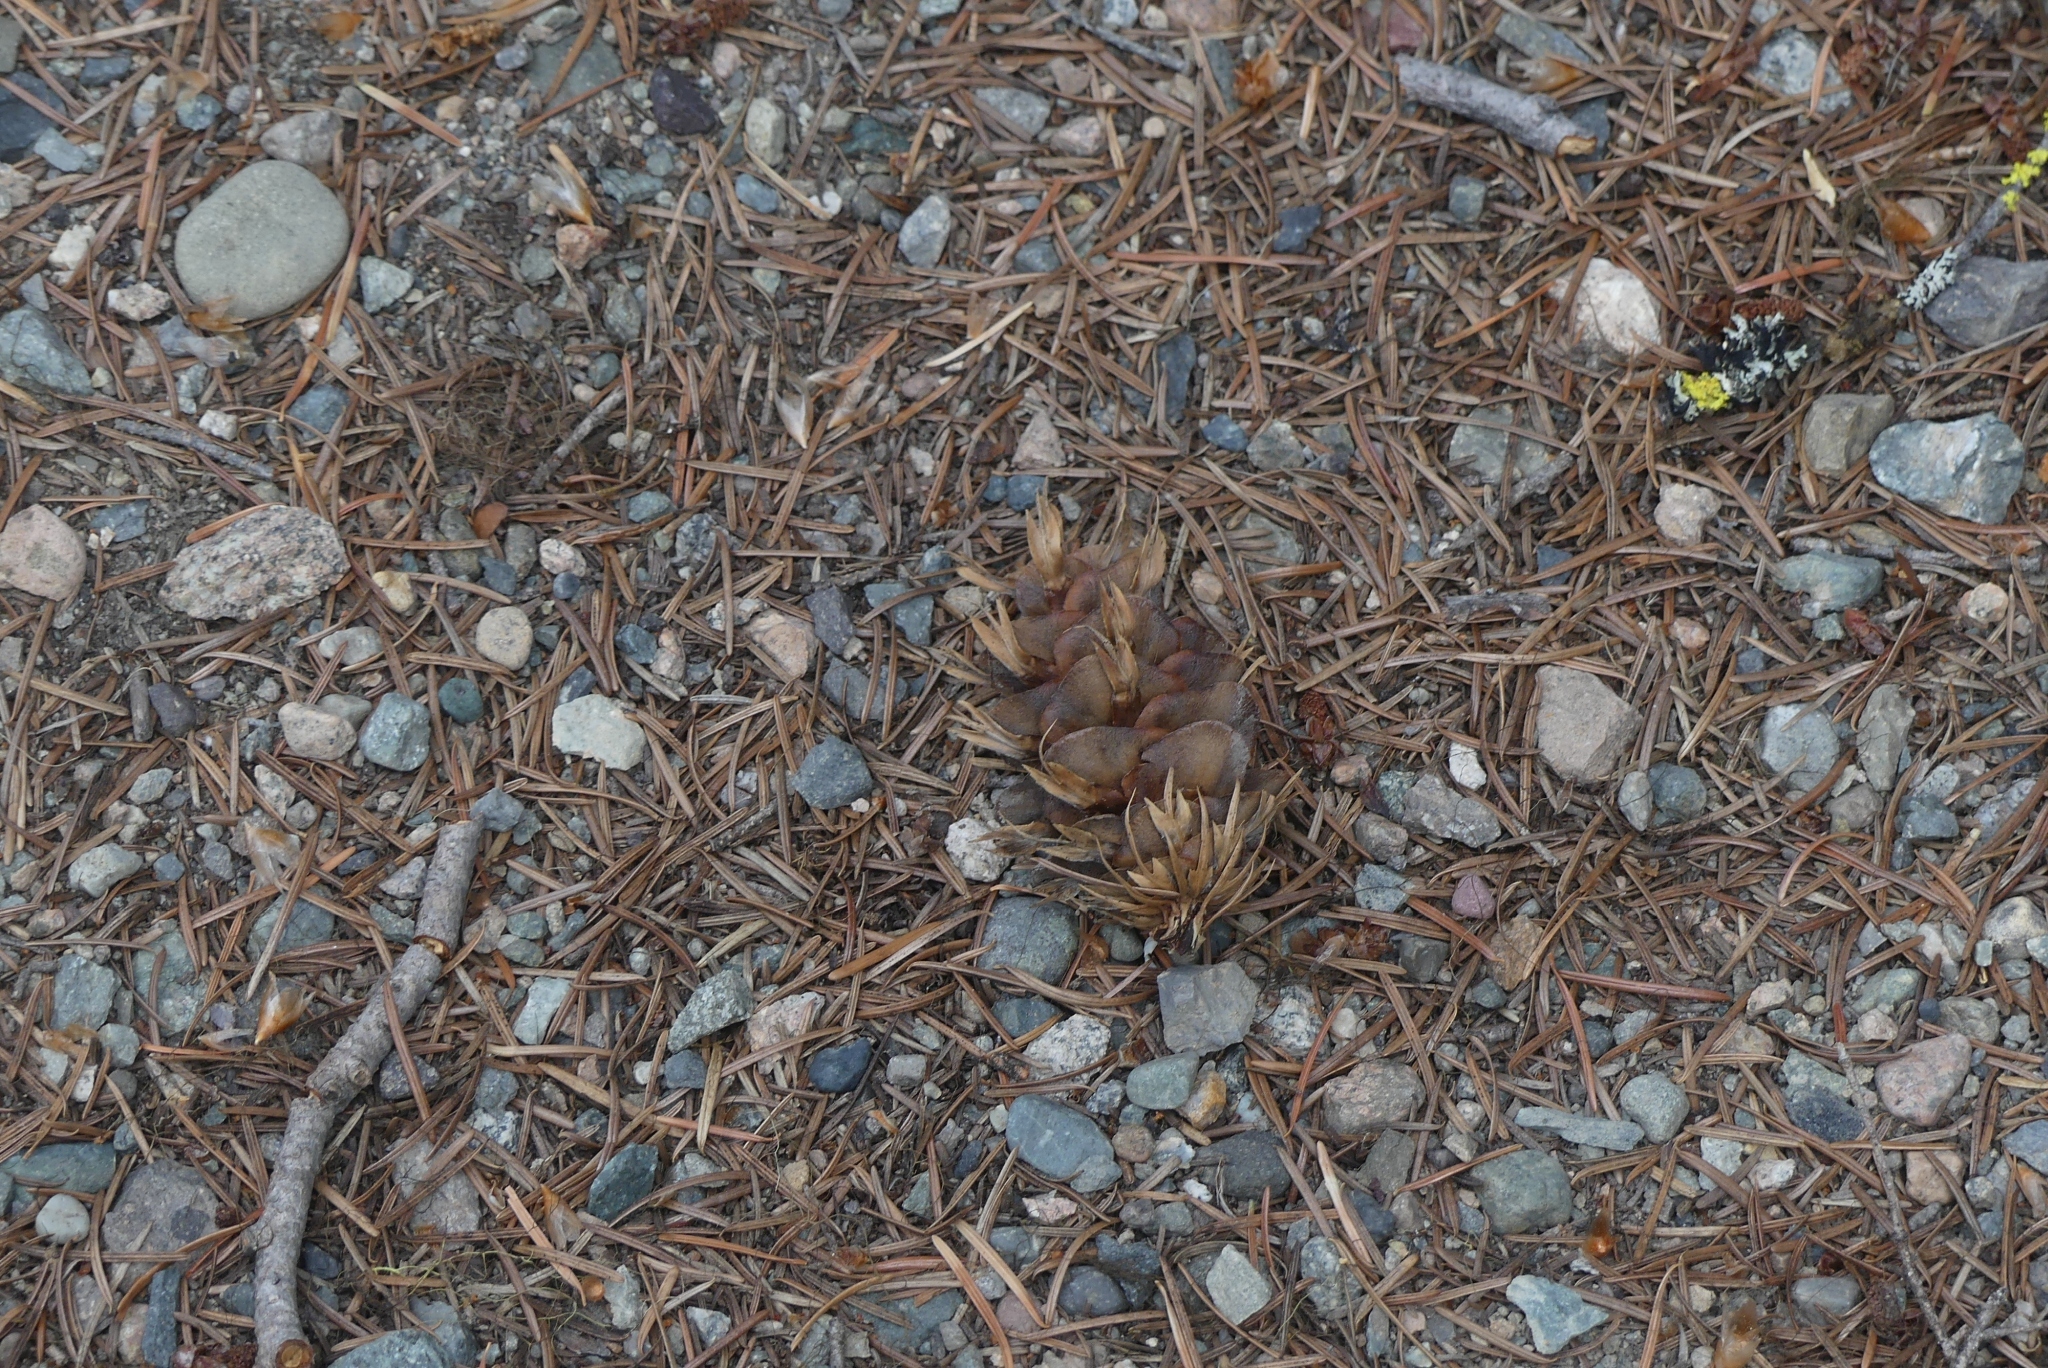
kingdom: Plantae
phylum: Tracheophyta
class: Pinopsida
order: Pinales
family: Pinaceae
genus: Pseudotsuga
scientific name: Pseudotsuga menziesii
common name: Douglas fir
